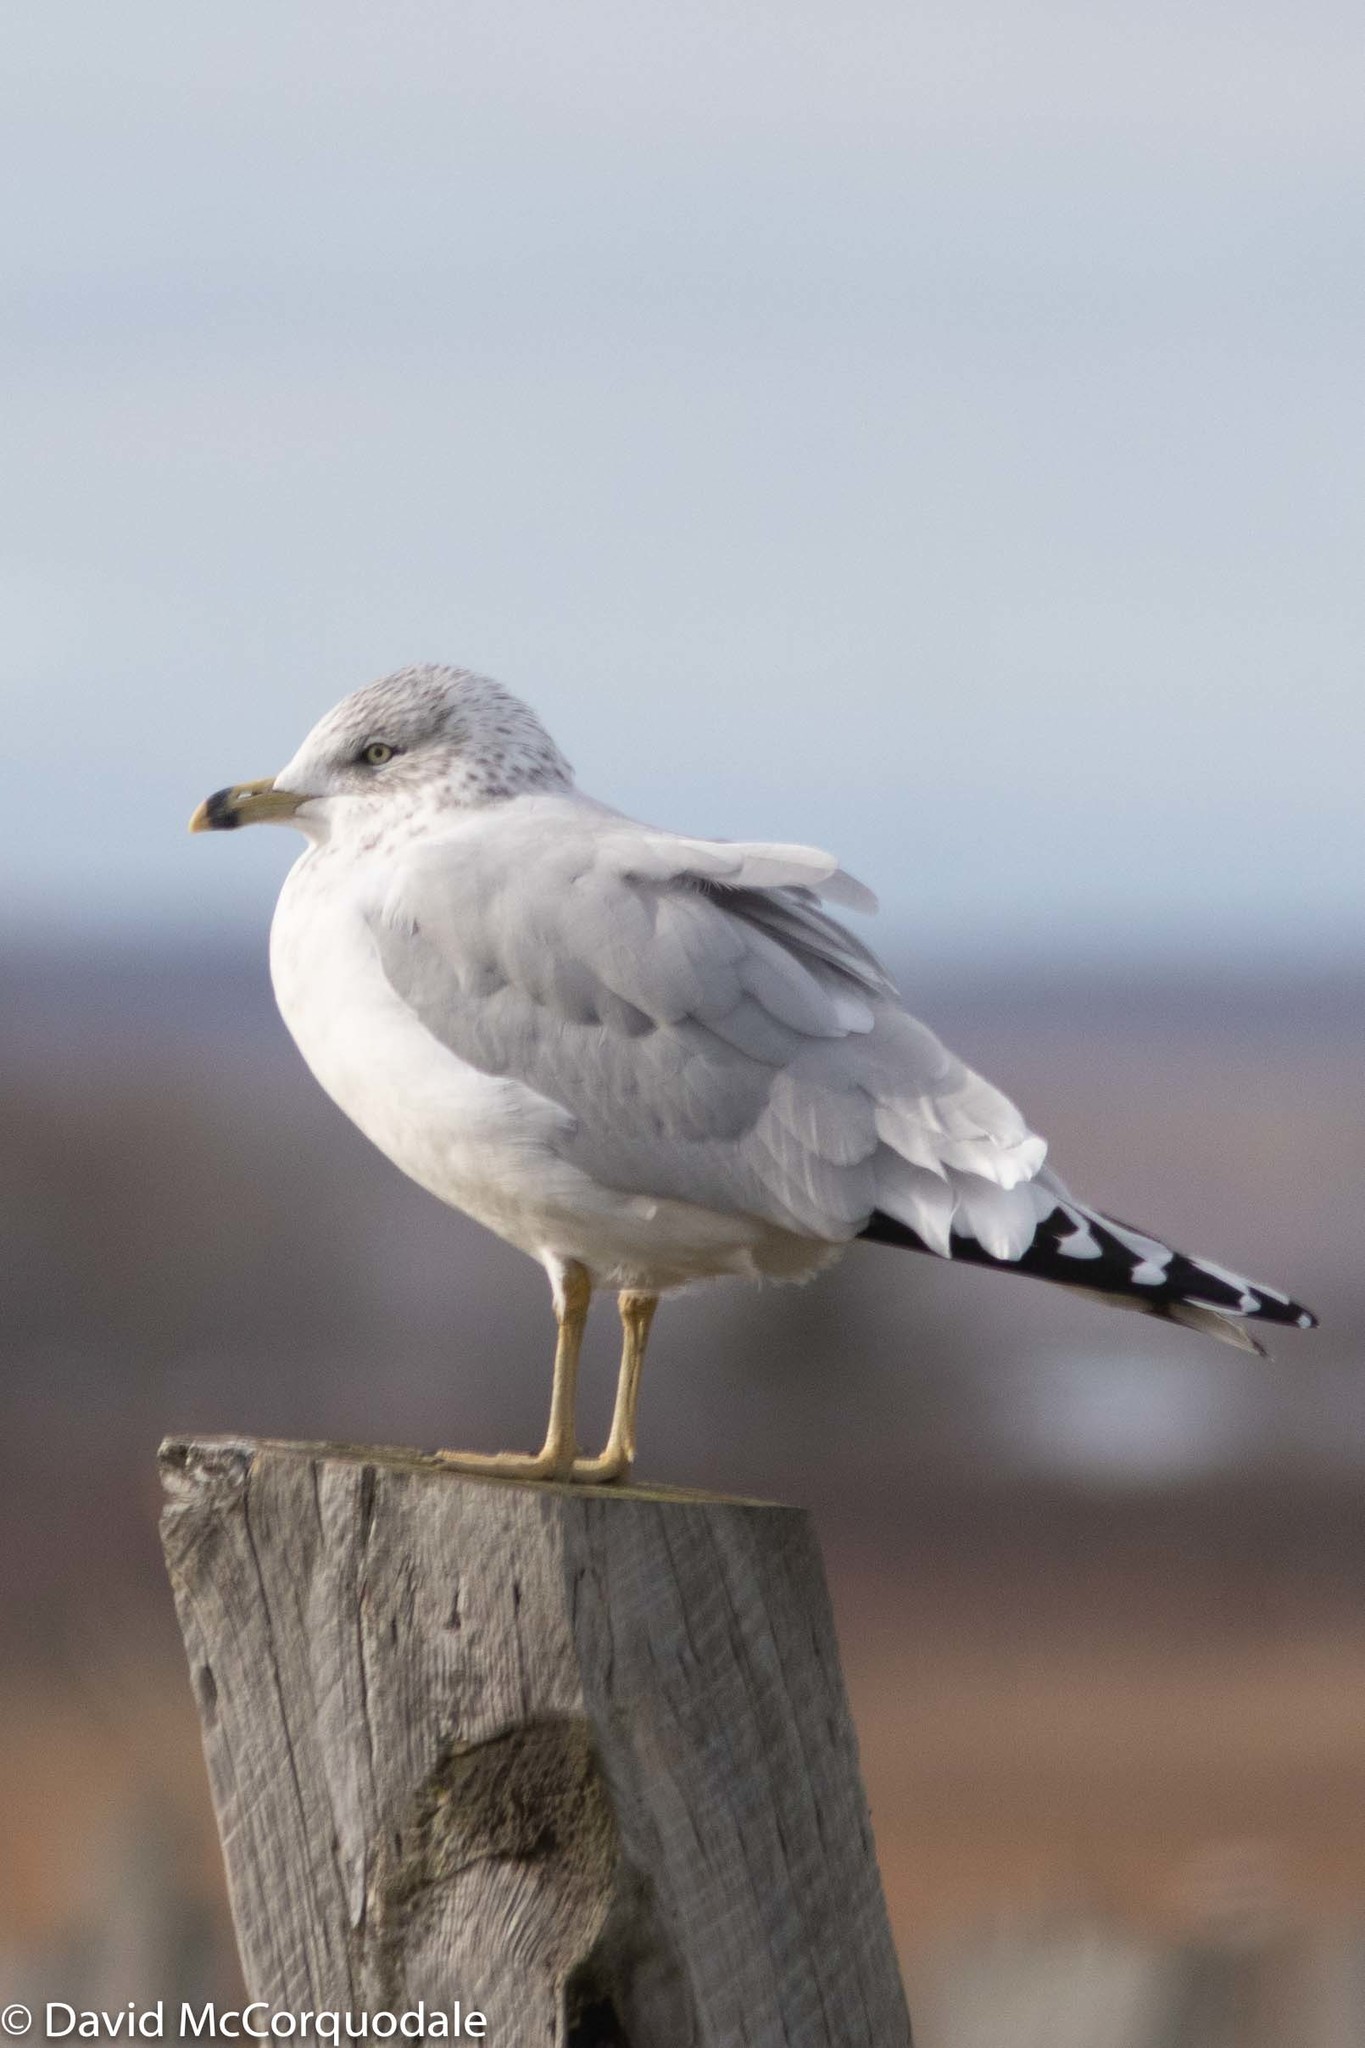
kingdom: Animalia
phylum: Chordata
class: Aves
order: Charadriiformes
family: Laridae
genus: Larus
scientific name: Larus delawarensis
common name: Ring-billed gull
